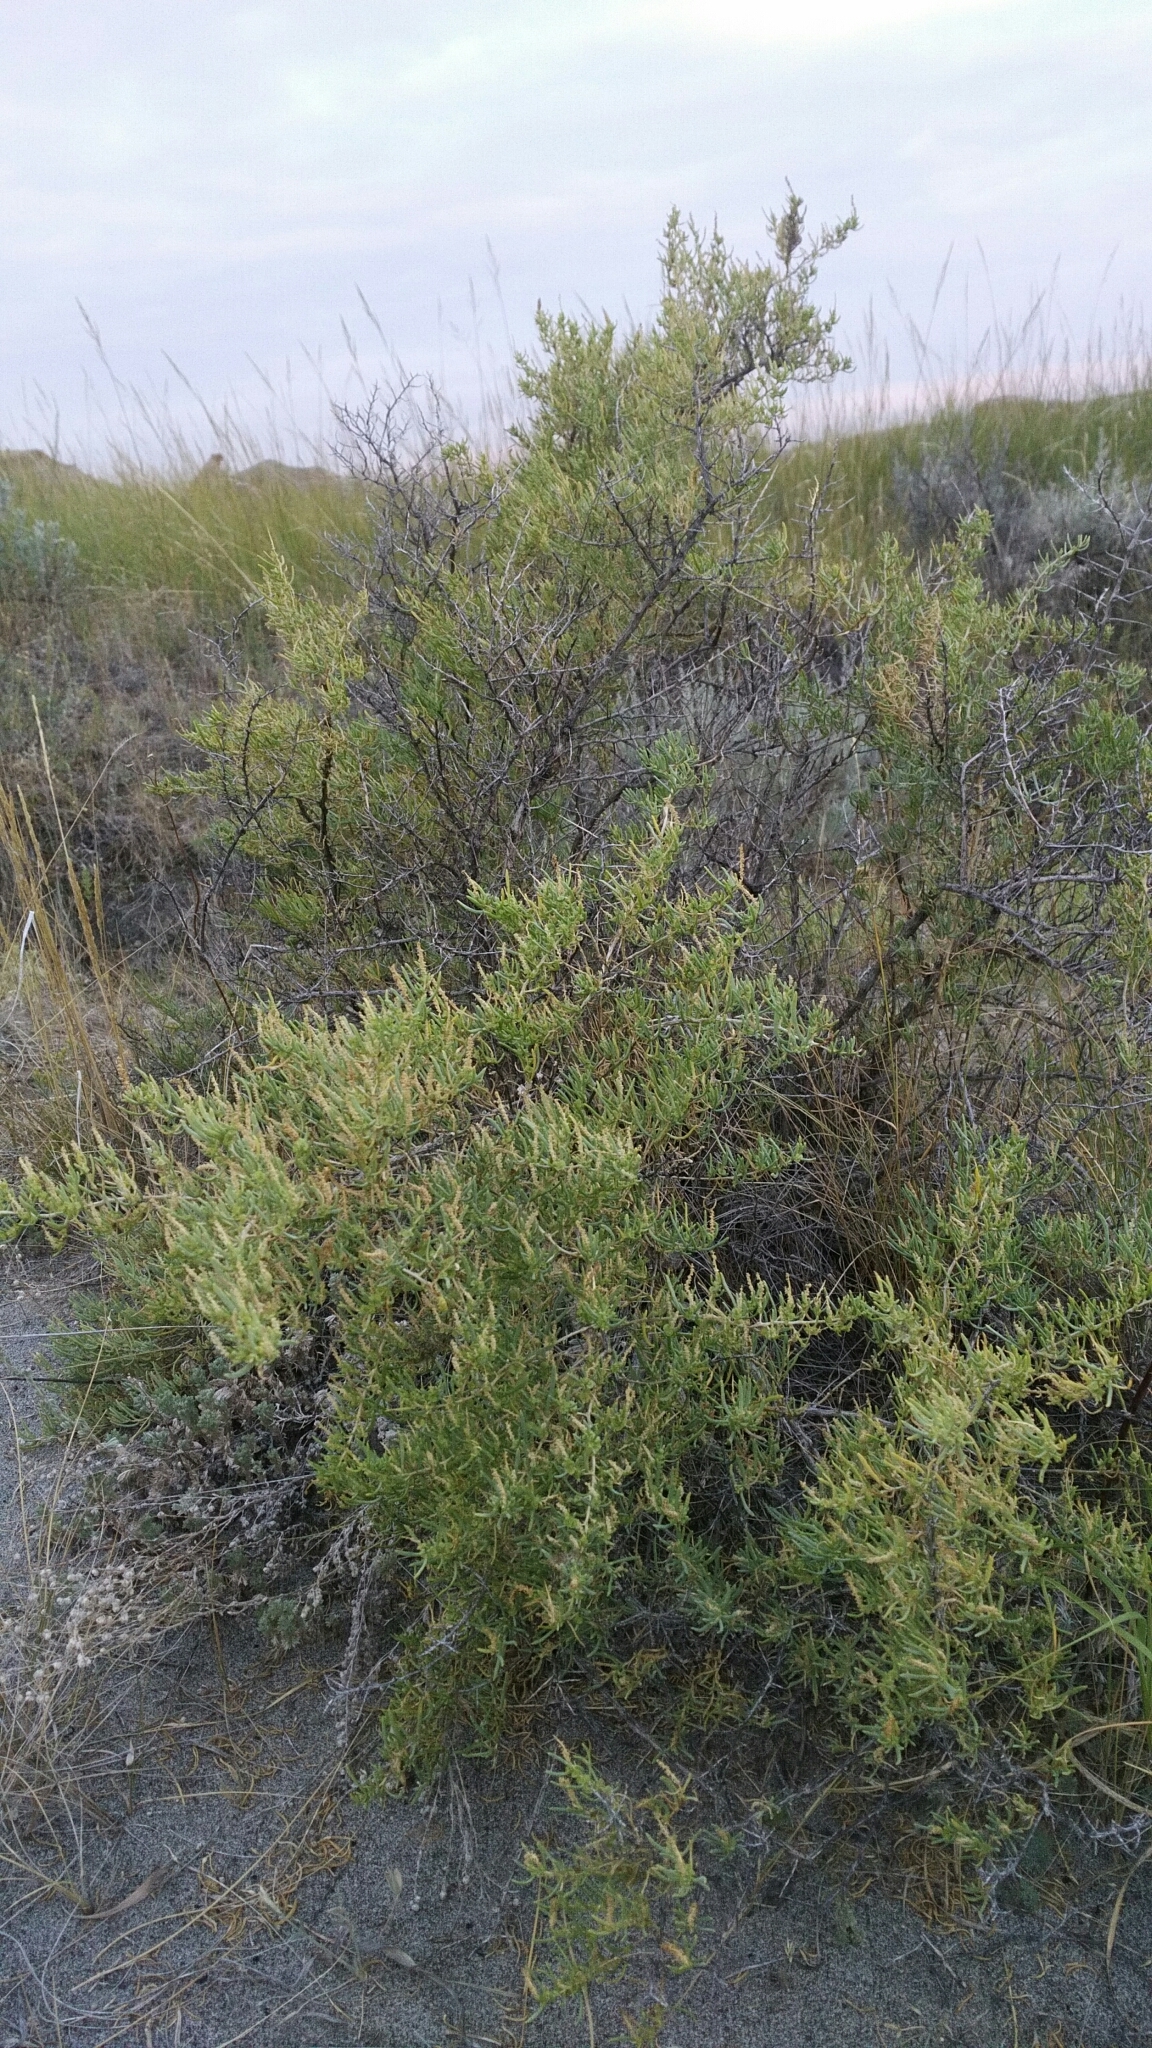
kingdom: Plantae
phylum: Tracheophyta
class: Magnoliopsida
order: Caryophyllales
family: Sarcobataceae
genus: Sarcobatus
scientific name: Sarcobatus vermiculatus
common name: Greasewood
